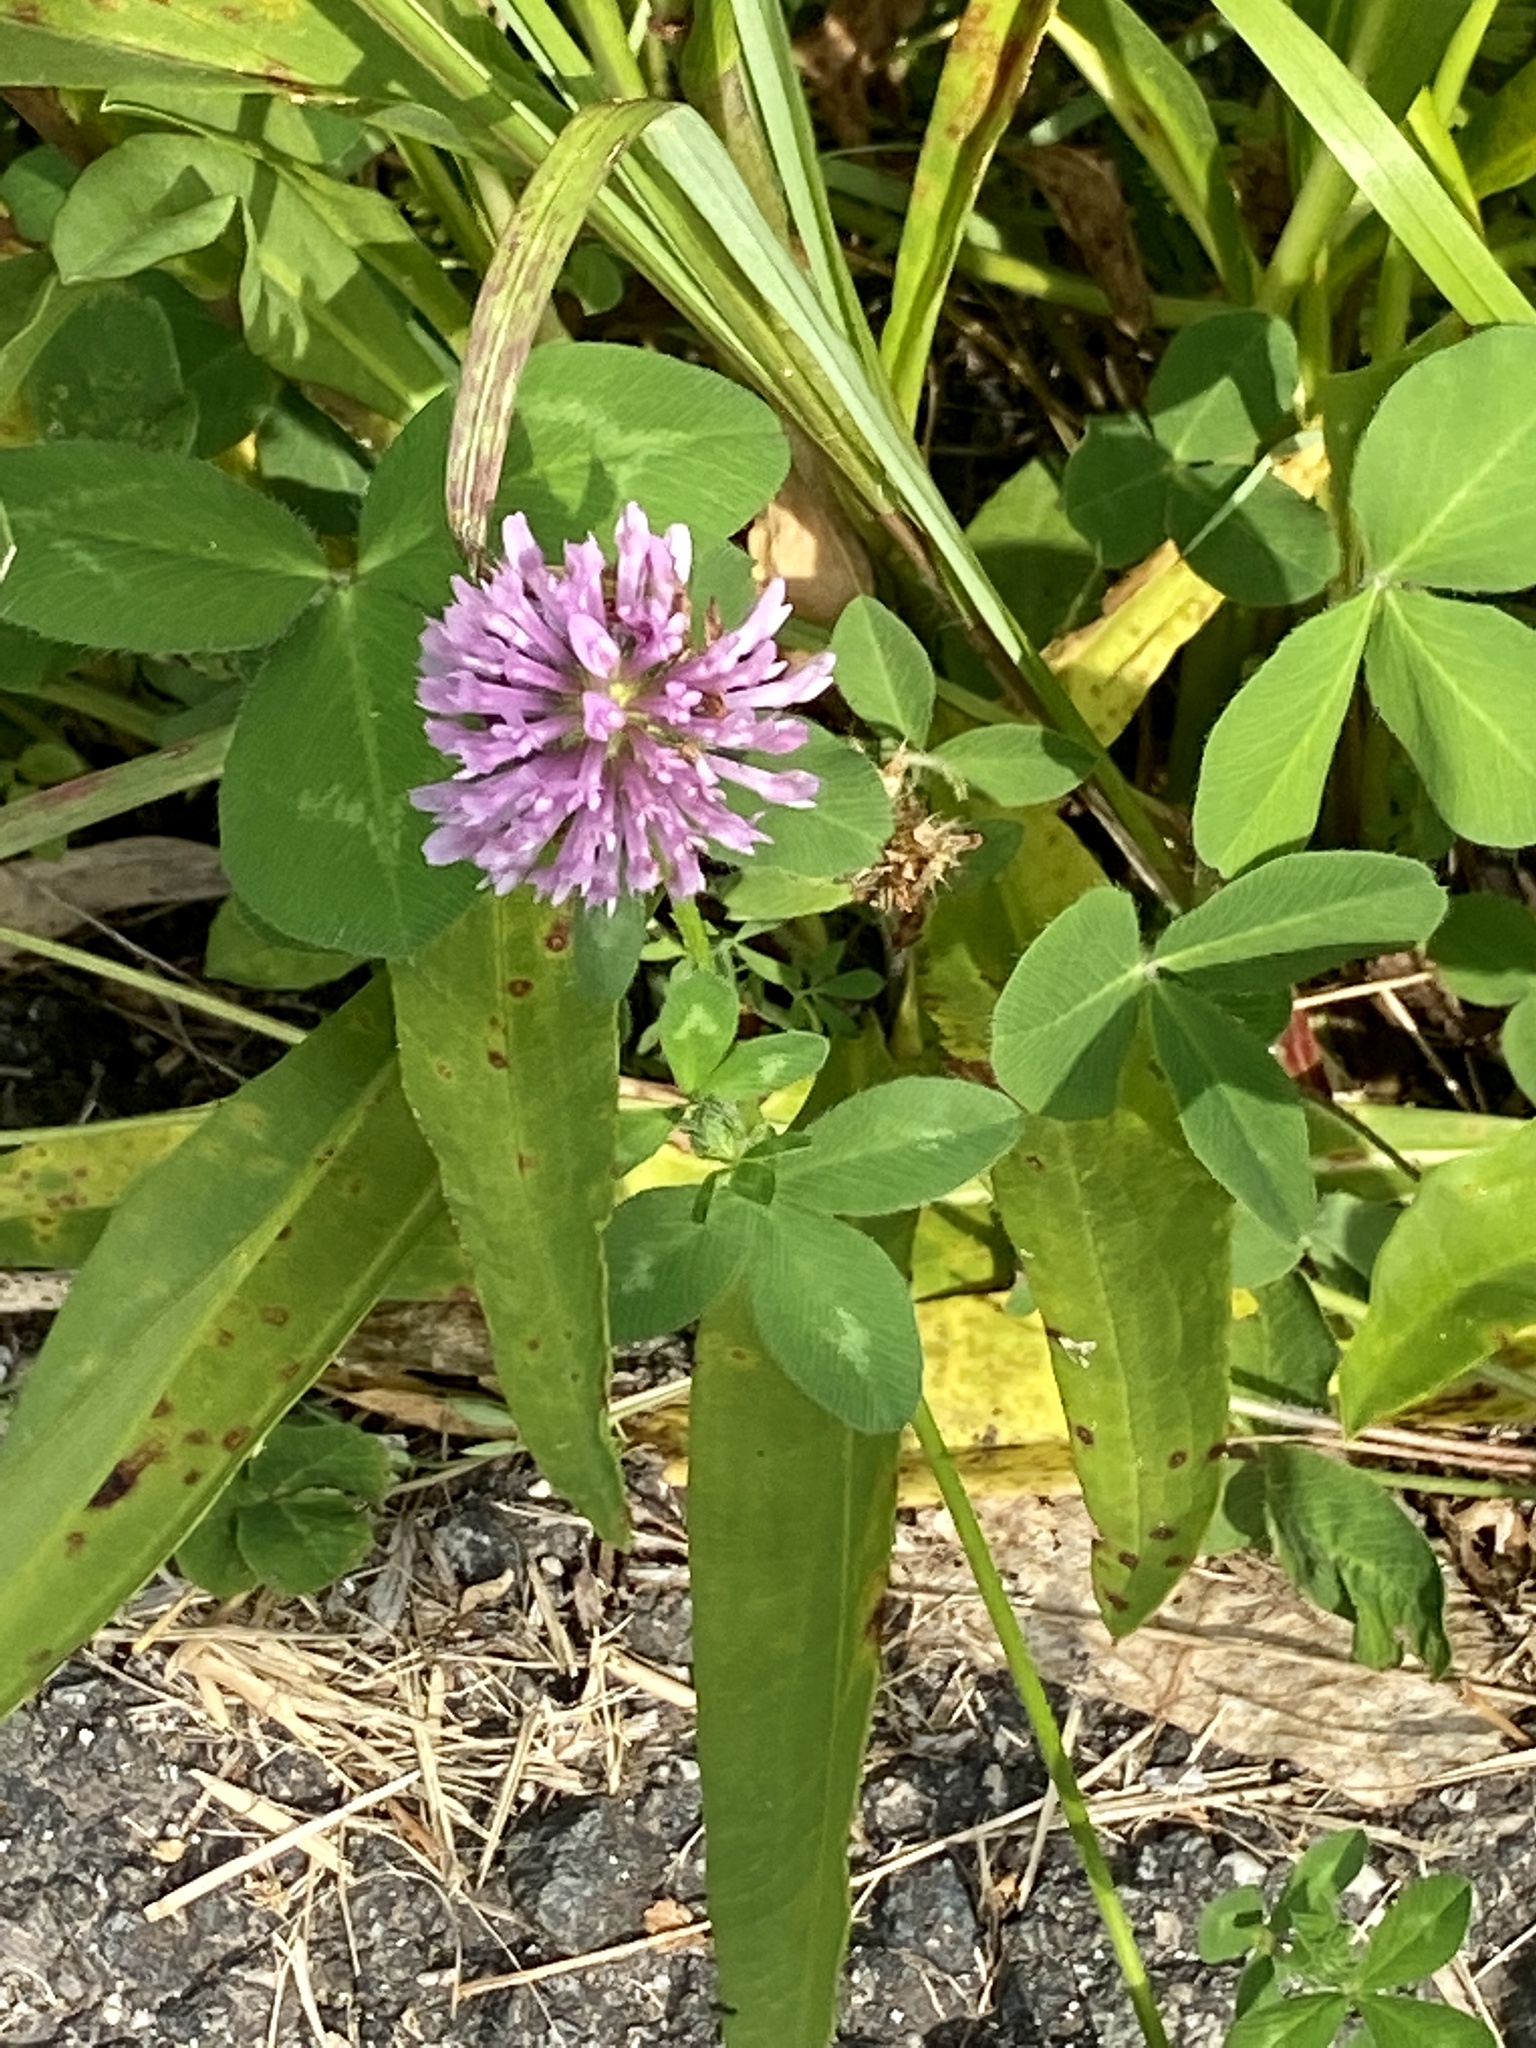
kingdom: Plantae
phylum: Tracheophyta
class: Magnoliopsida
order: Fabales
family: Fabaceae
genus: Trifolium
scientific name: Trifolium pratense
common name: Red clover
